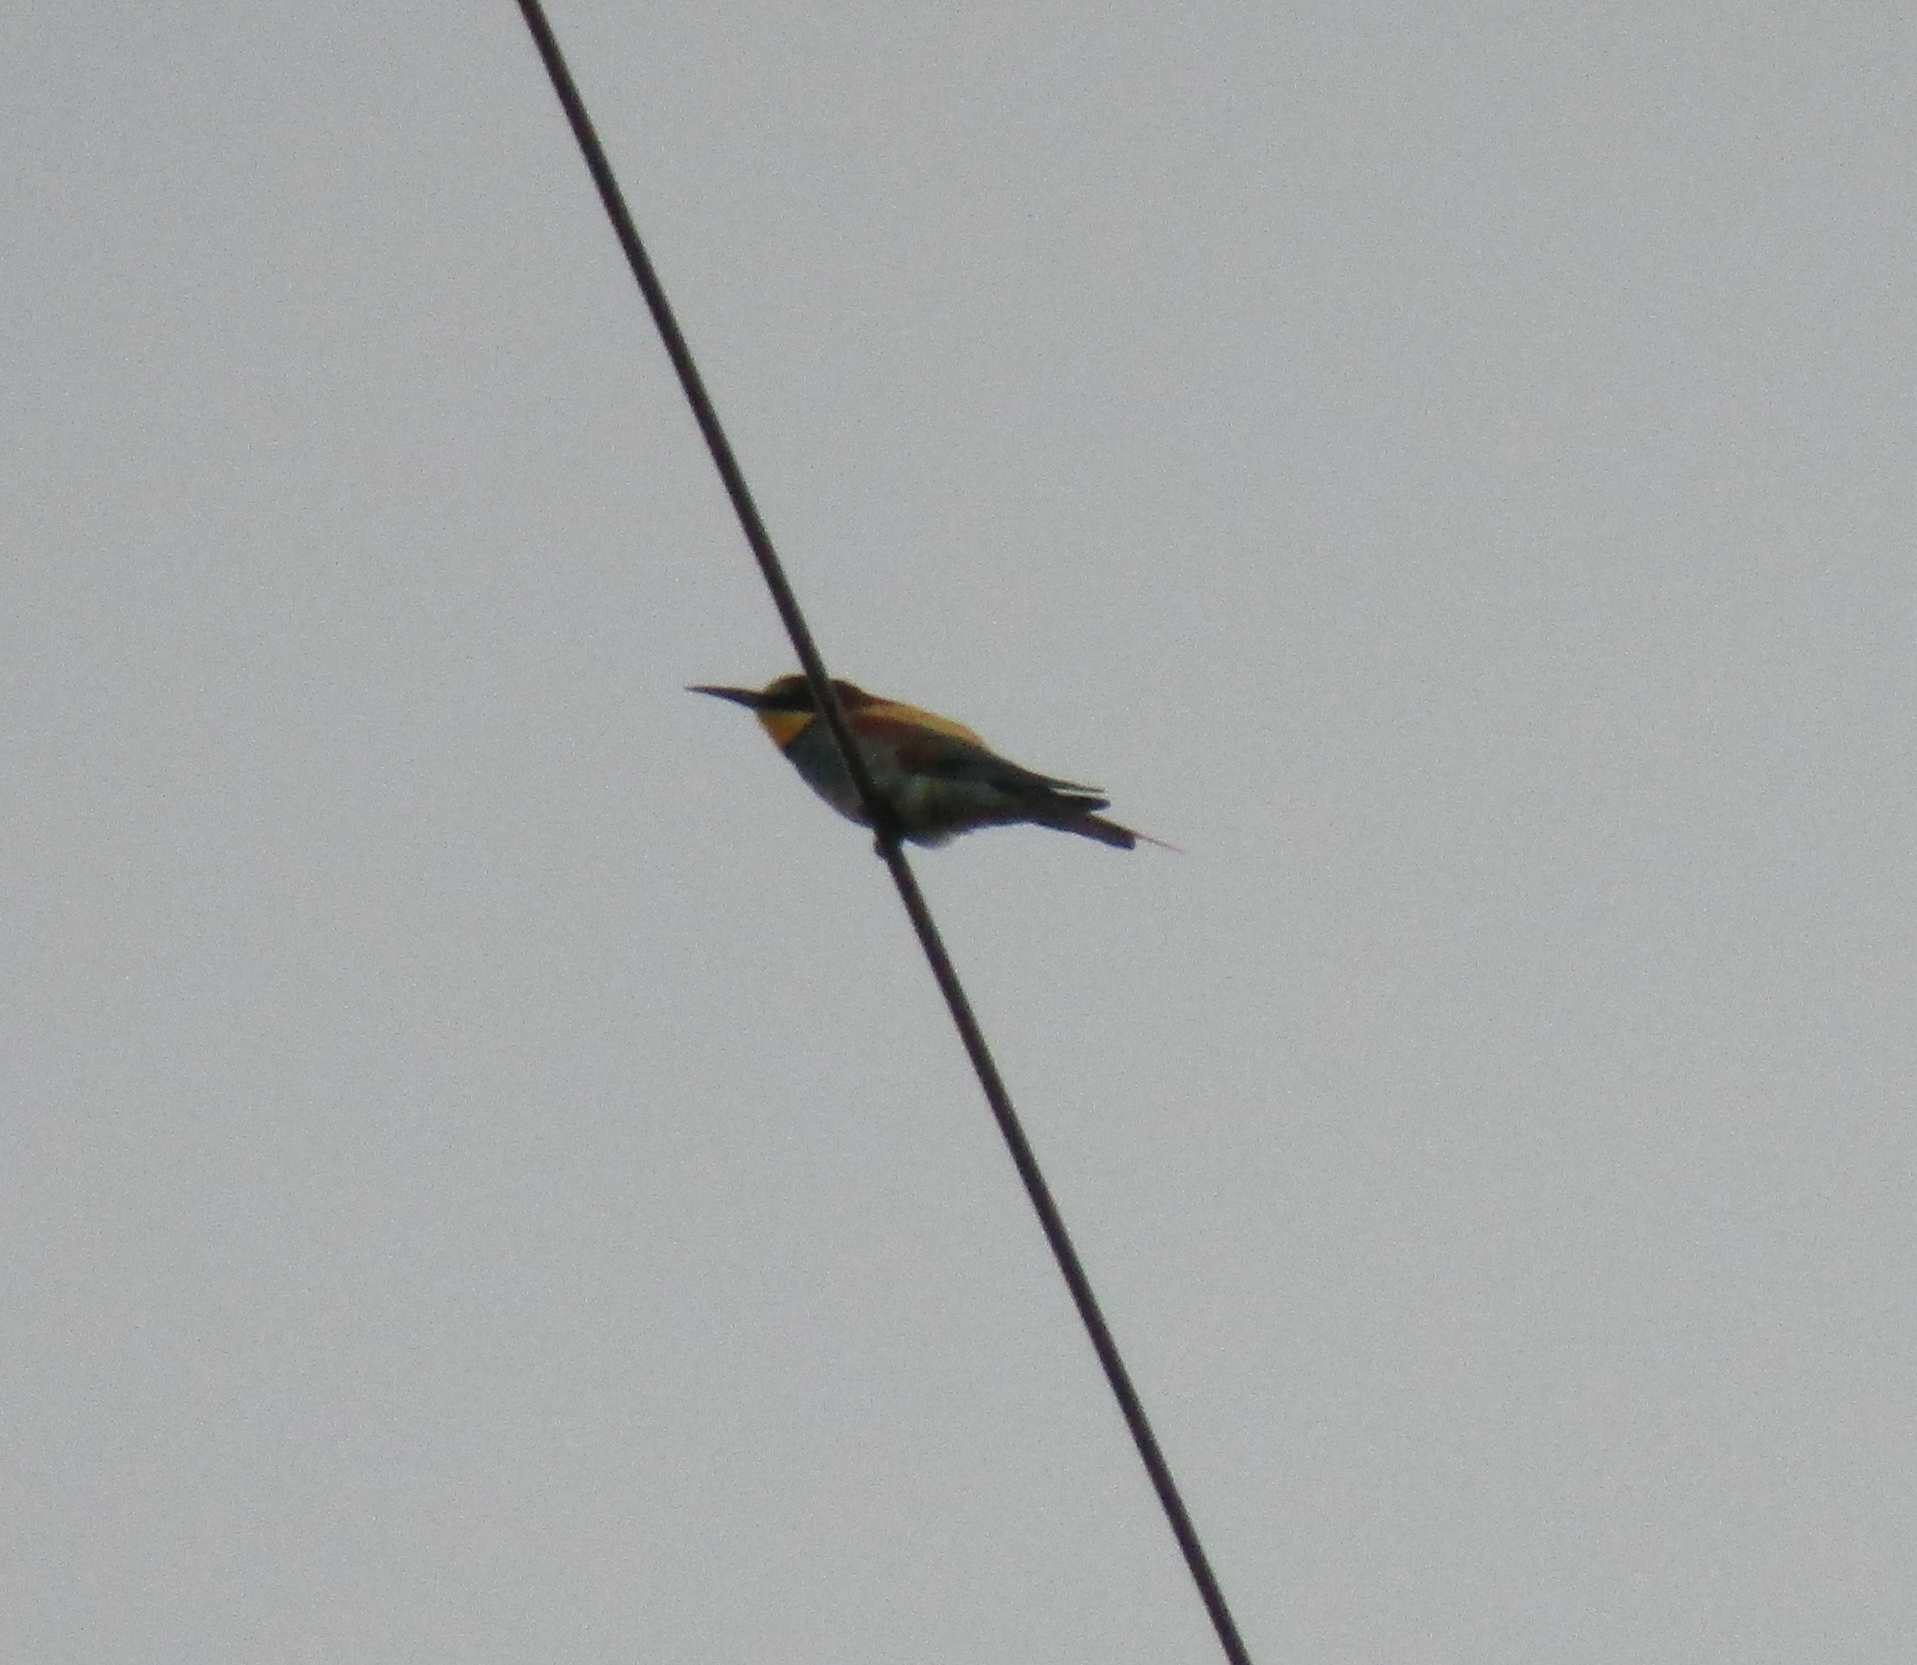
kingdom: Animalia
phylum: Chordata
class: Aves
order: Coraciiformes
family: Meropidae
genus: Merops
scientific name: Merops apiaster
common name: European bee-eater
